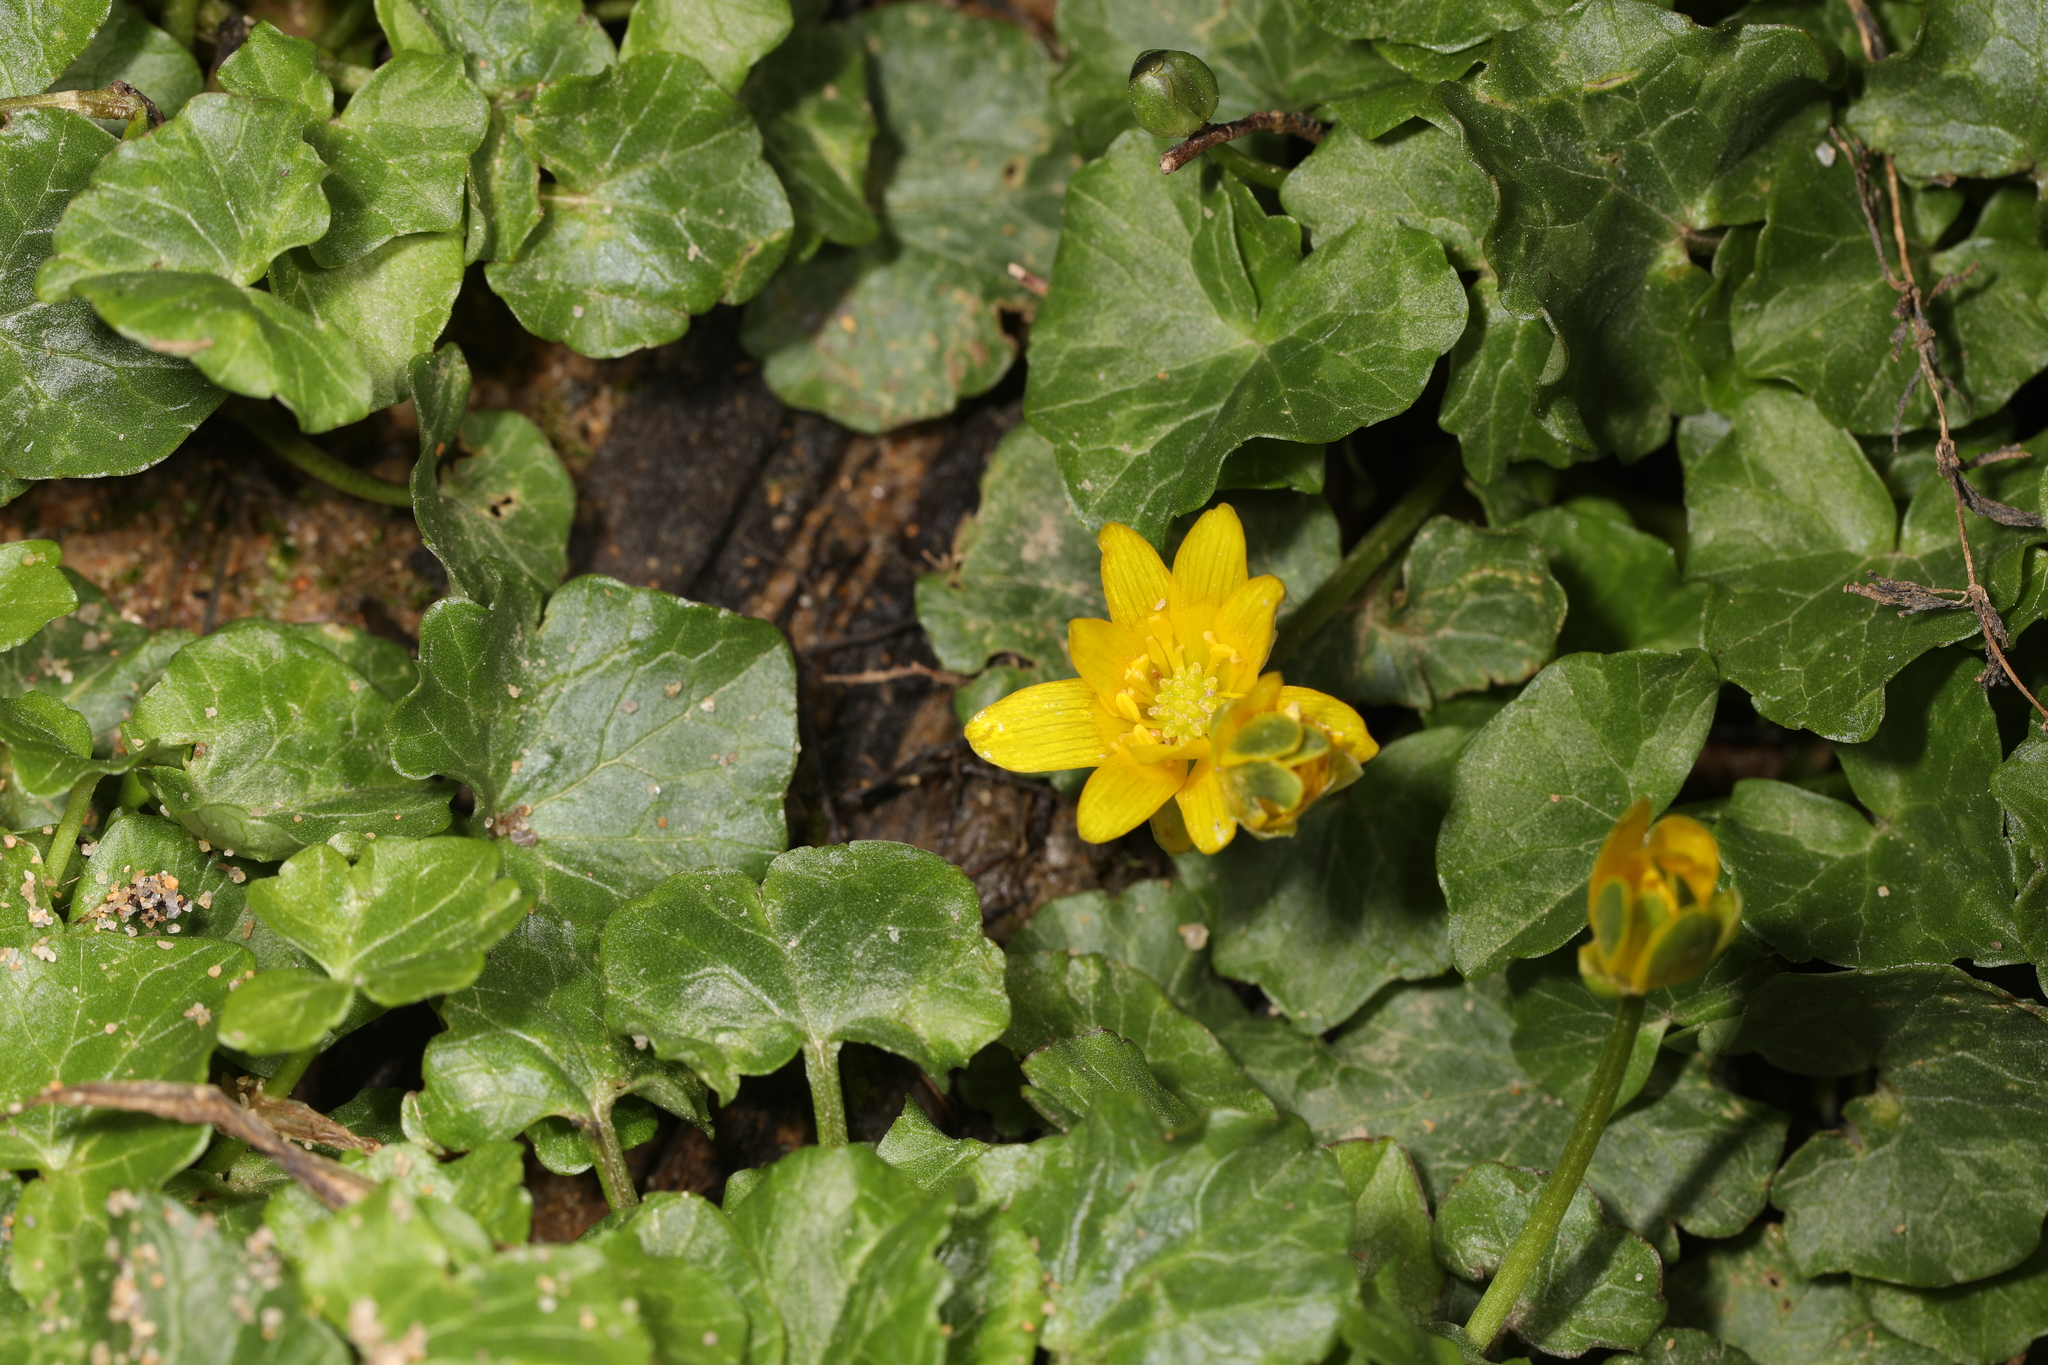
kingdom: Plantae
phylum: Tracheophyta
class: Magnoliopsida
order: Ranunculales
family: Ranunculaceae
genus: Ficaria
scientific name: Ficaria verna
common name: Lesser celandine
